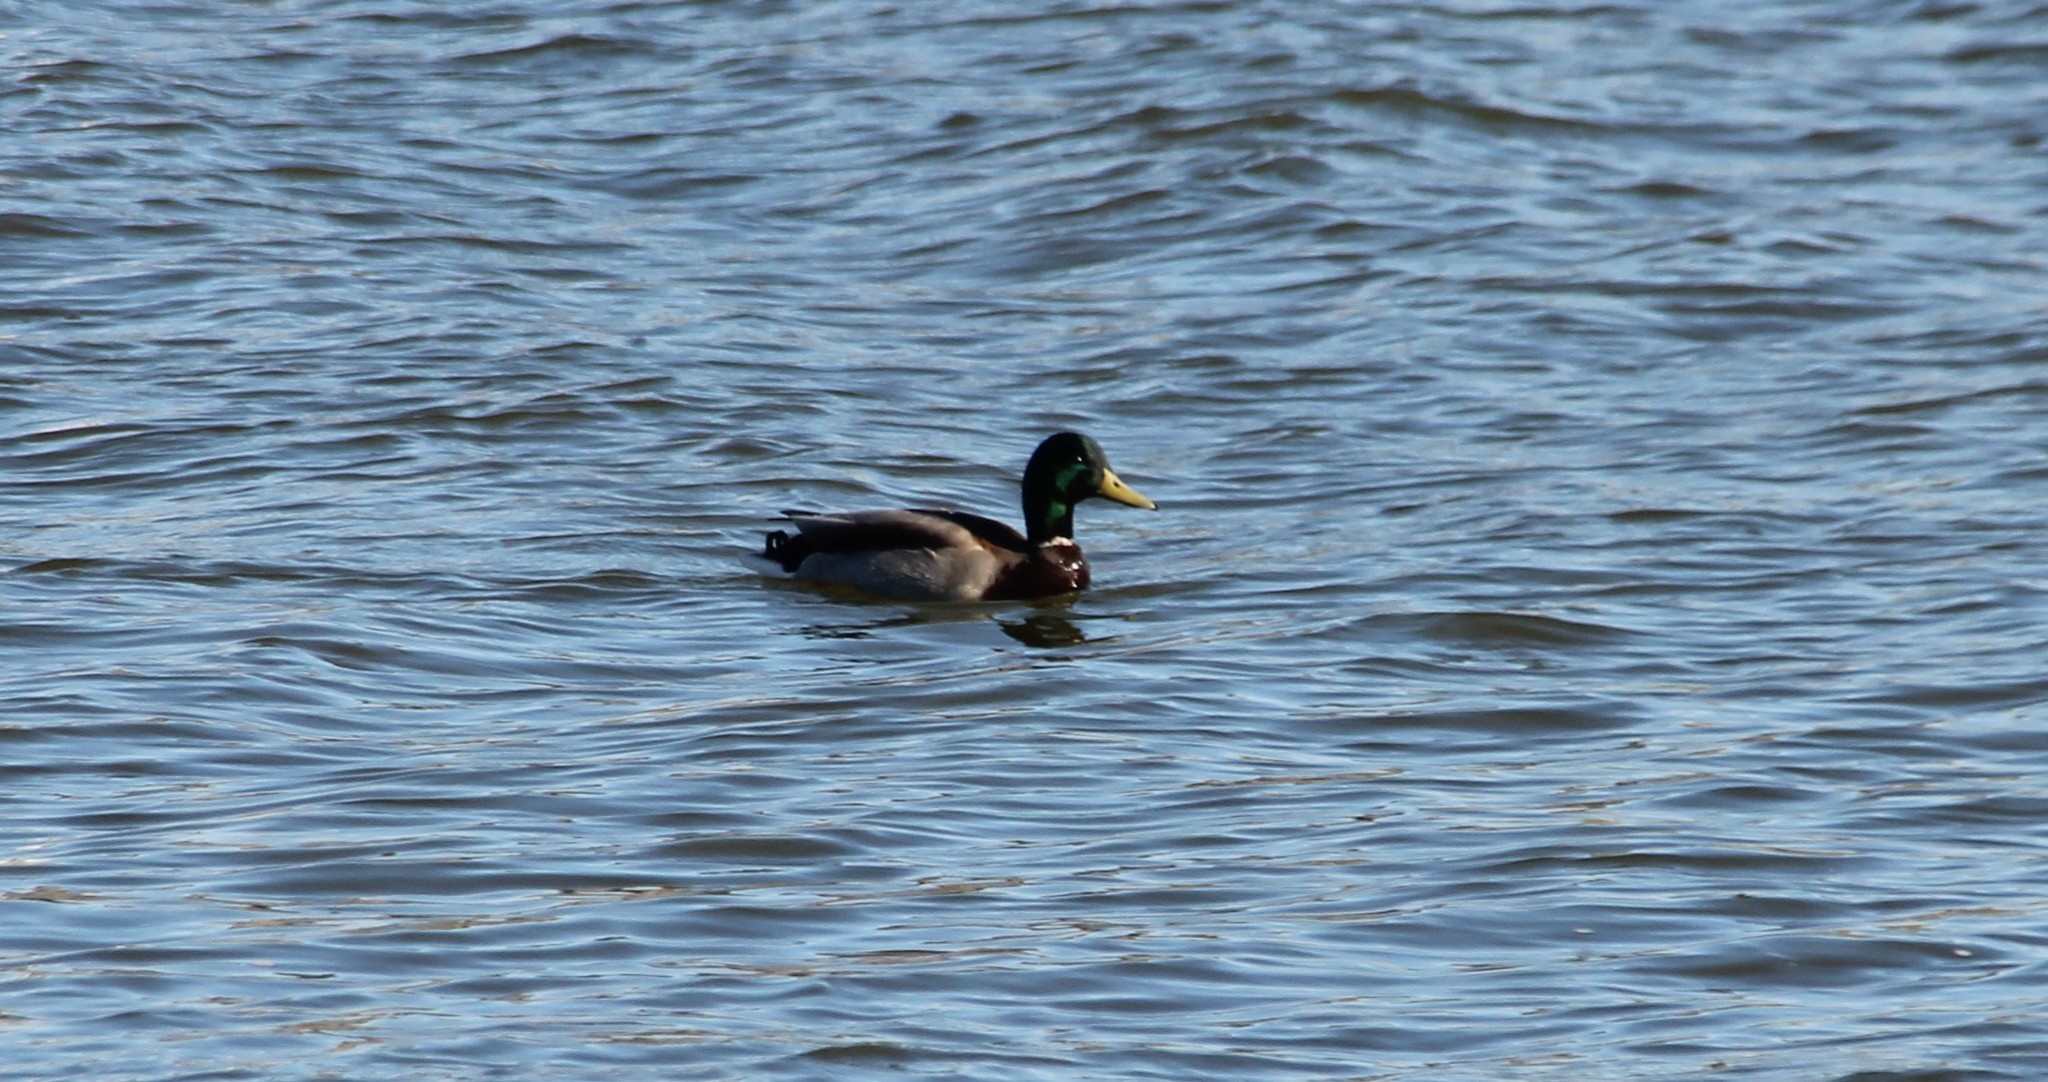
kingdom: Animalia
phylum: Chordata
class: Aves
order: Anseriformes
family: Anatidae
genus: Anas
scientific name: Anas platyrhynchos
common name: Mallard
